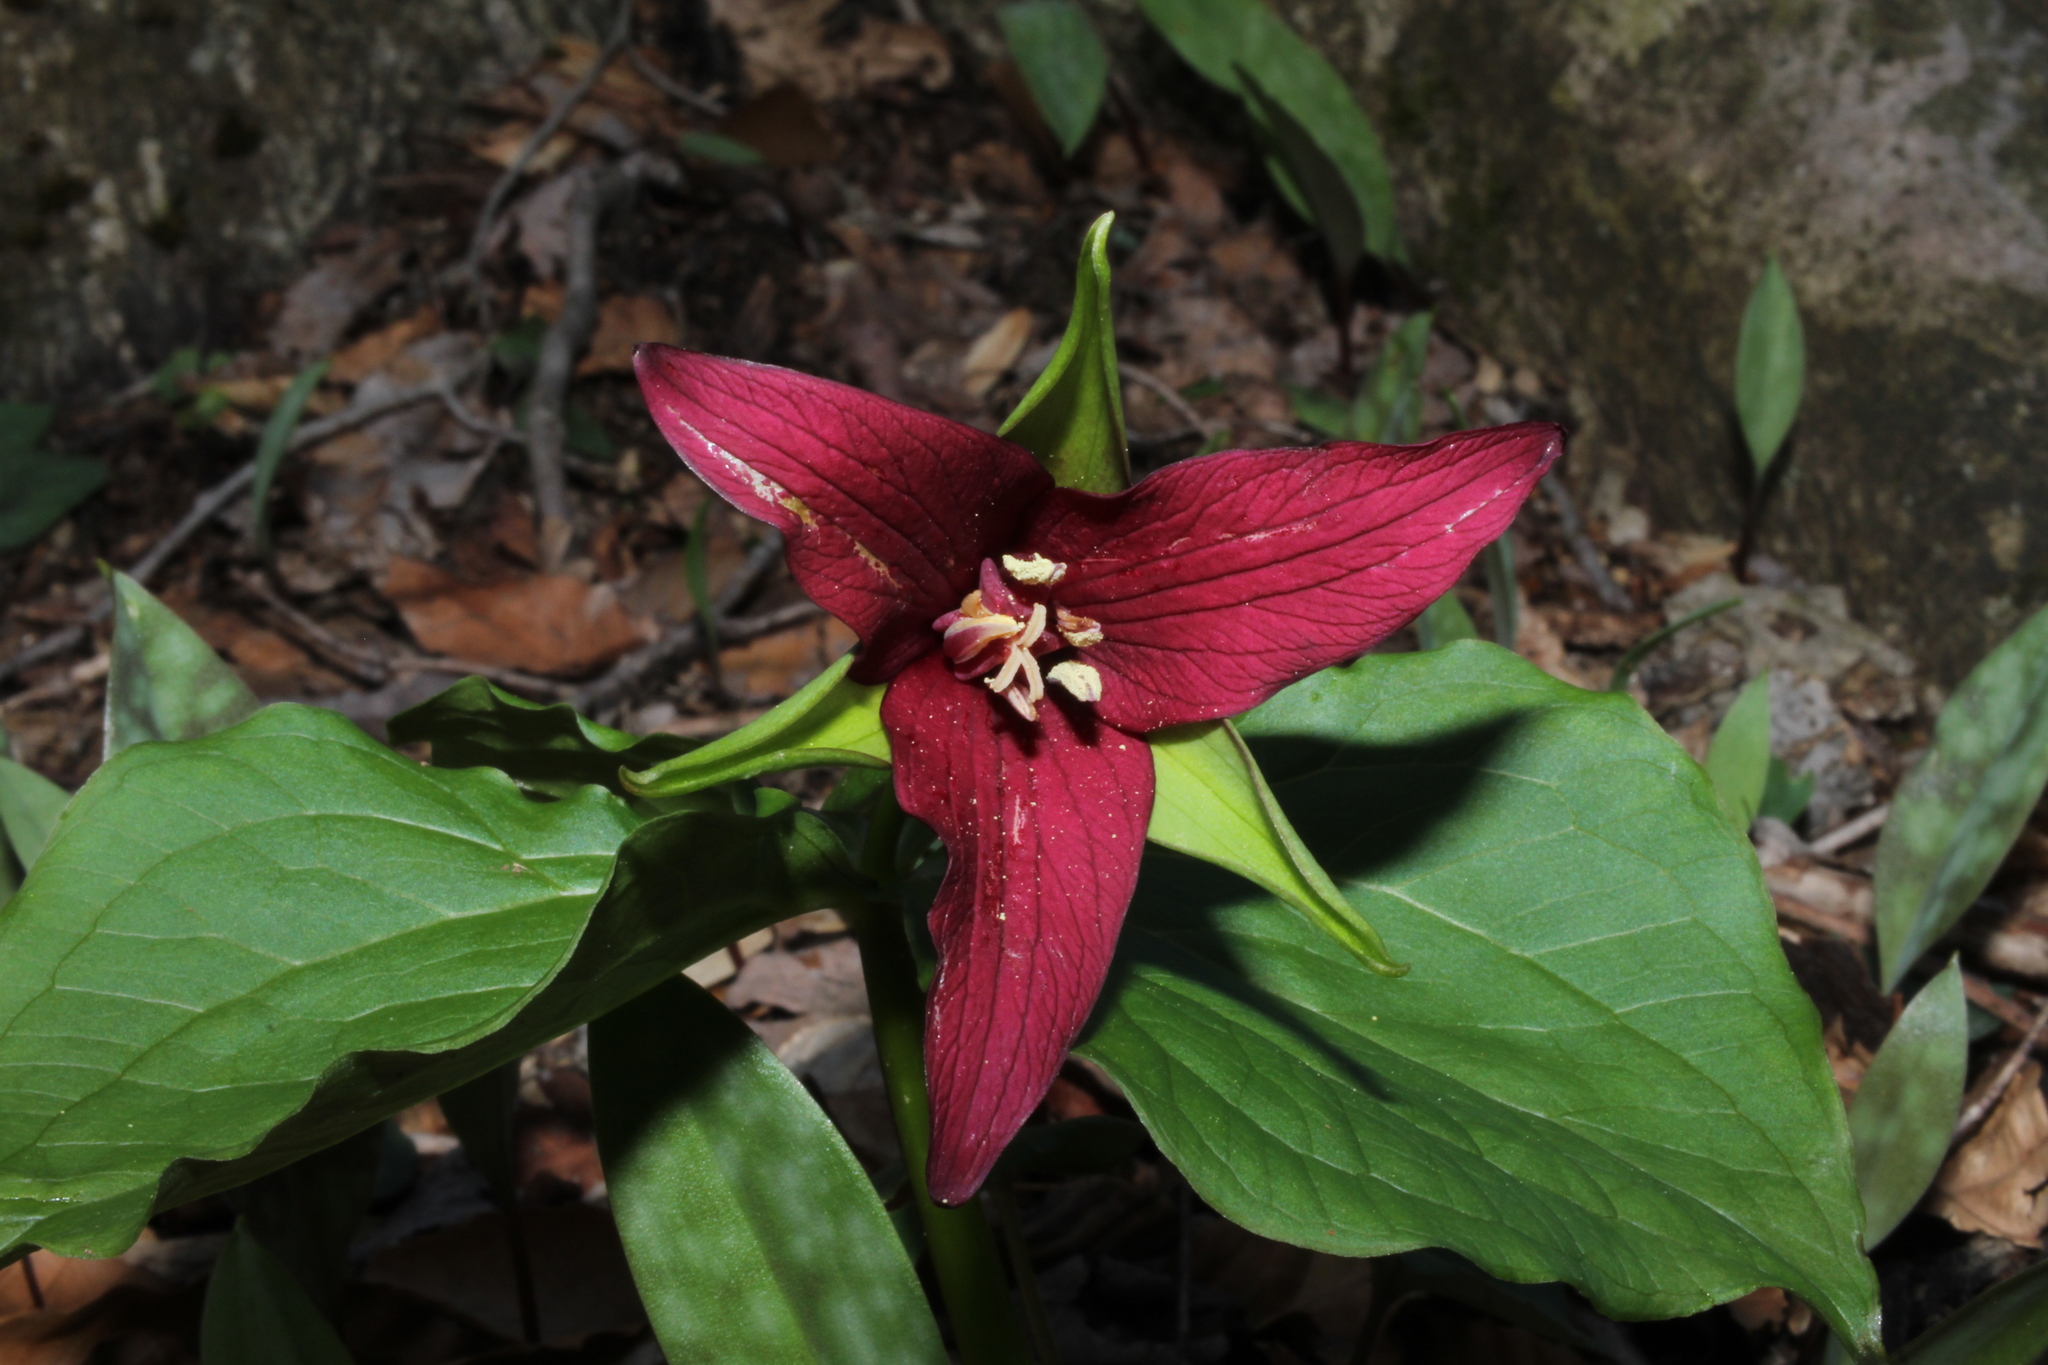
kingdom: Plantae
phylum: Tracheophyta
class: Liliopsida
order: Liliales
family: Melanthiaceae
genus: Trillium
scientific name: Trillium erectum
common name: Purple trillium
